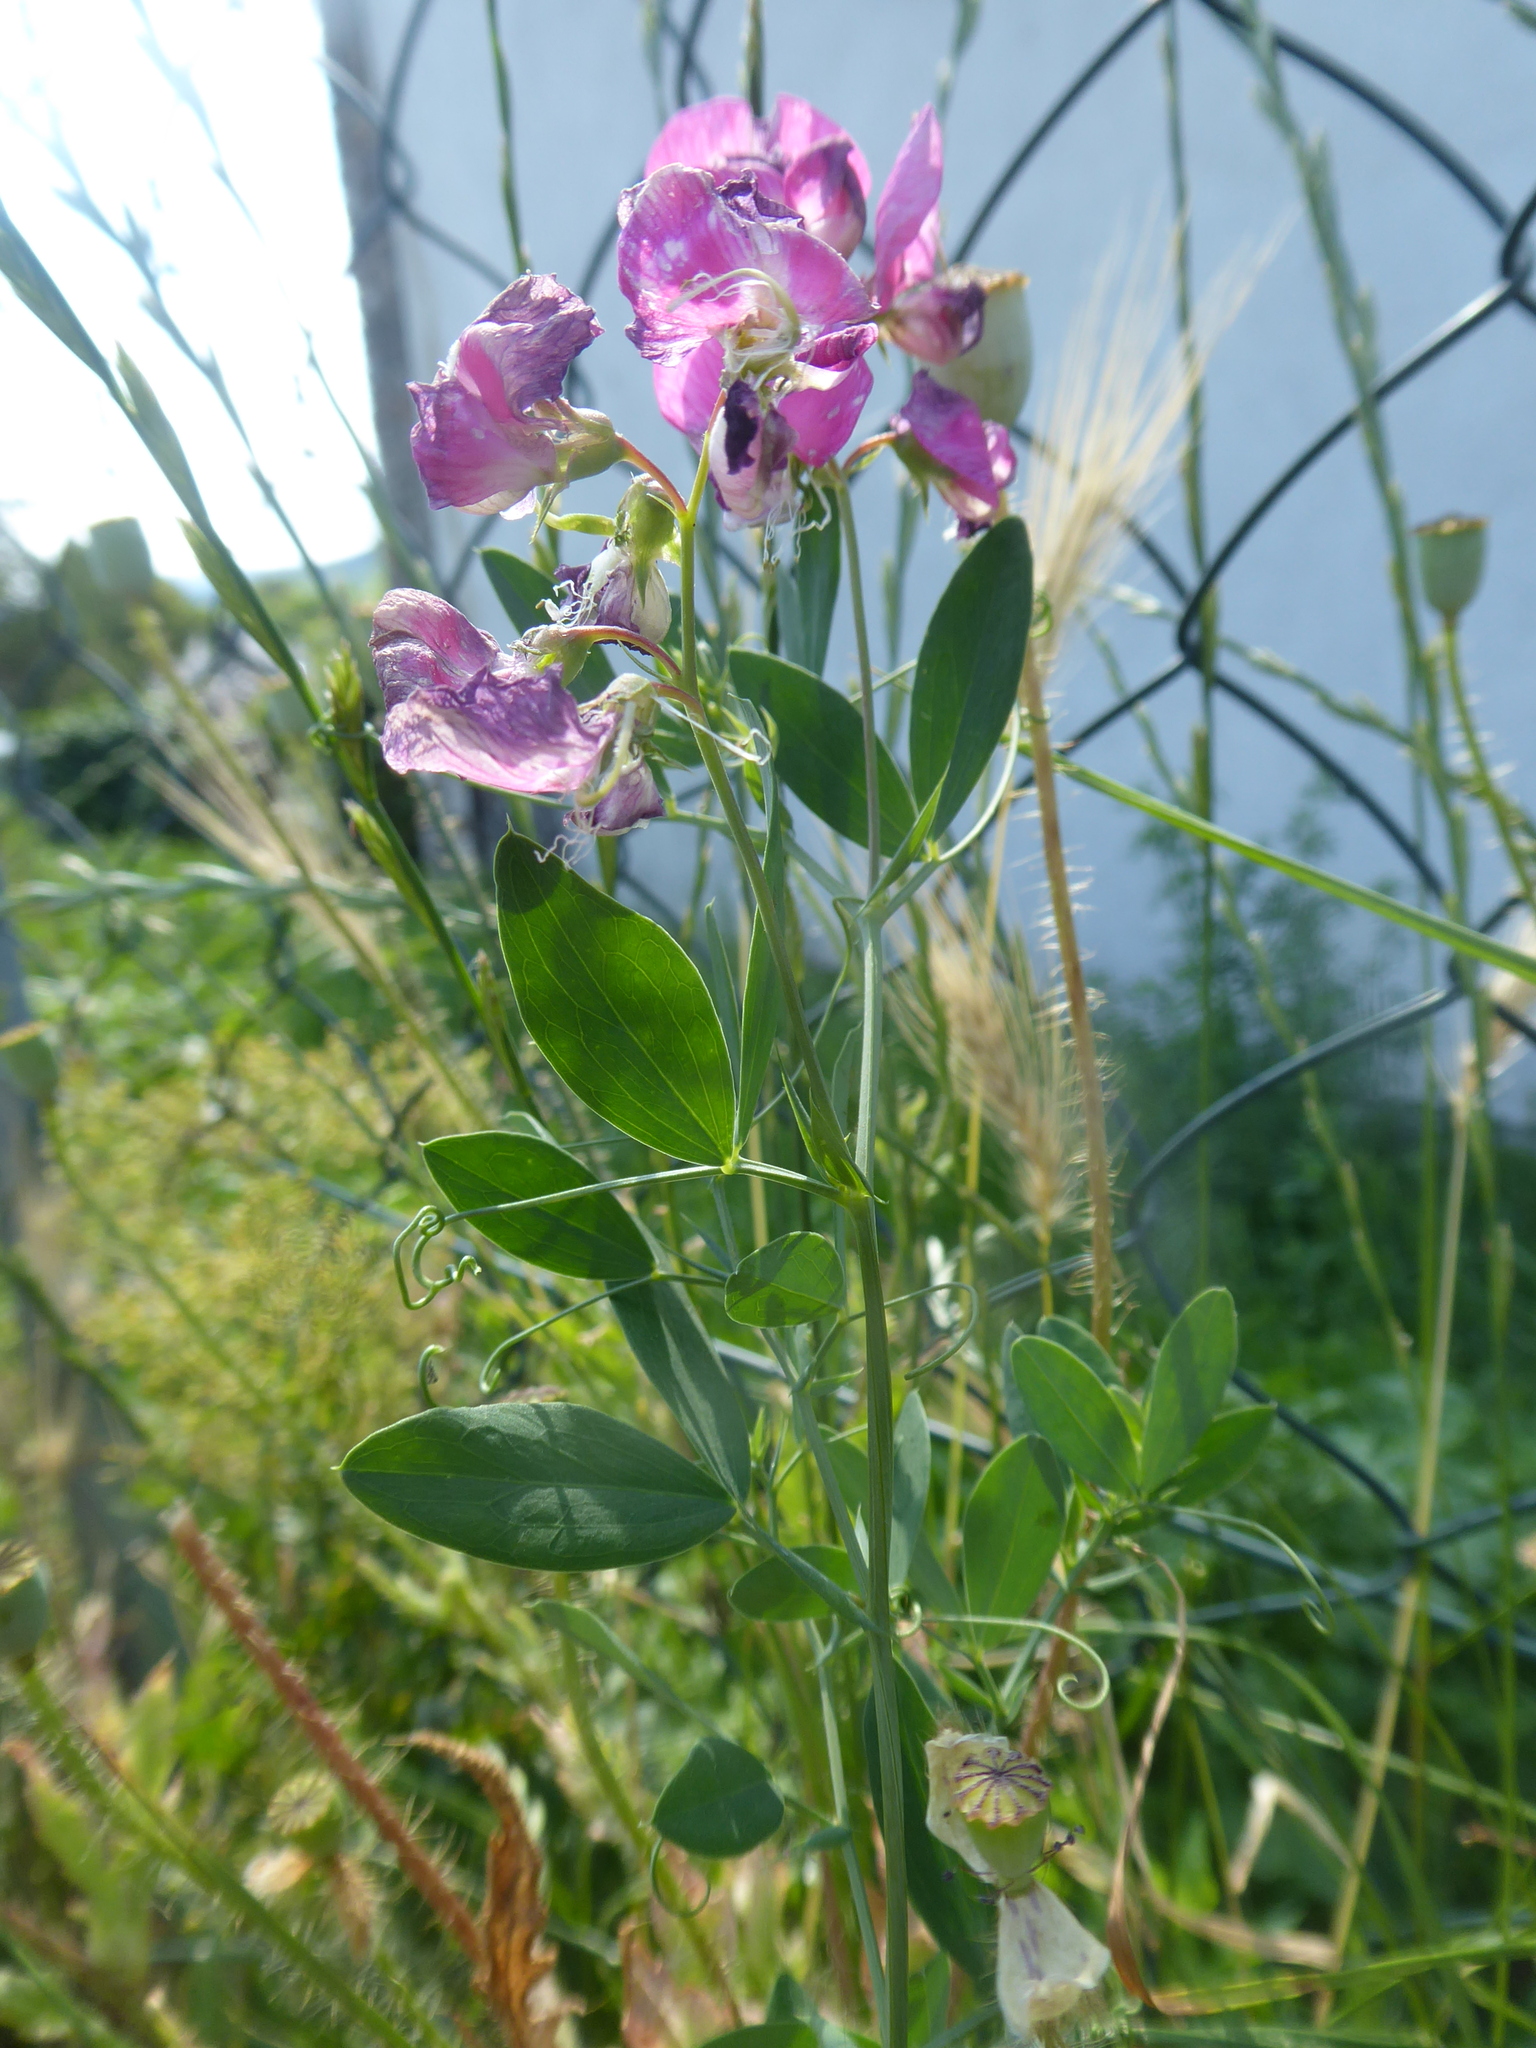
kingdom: Plantae
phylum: Tracheophyta
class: Magnoliopsida
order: Fabales
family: Fabaceae
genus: Lathyrus
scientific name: Lathyrus tuberosus
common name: Tuberous pea
